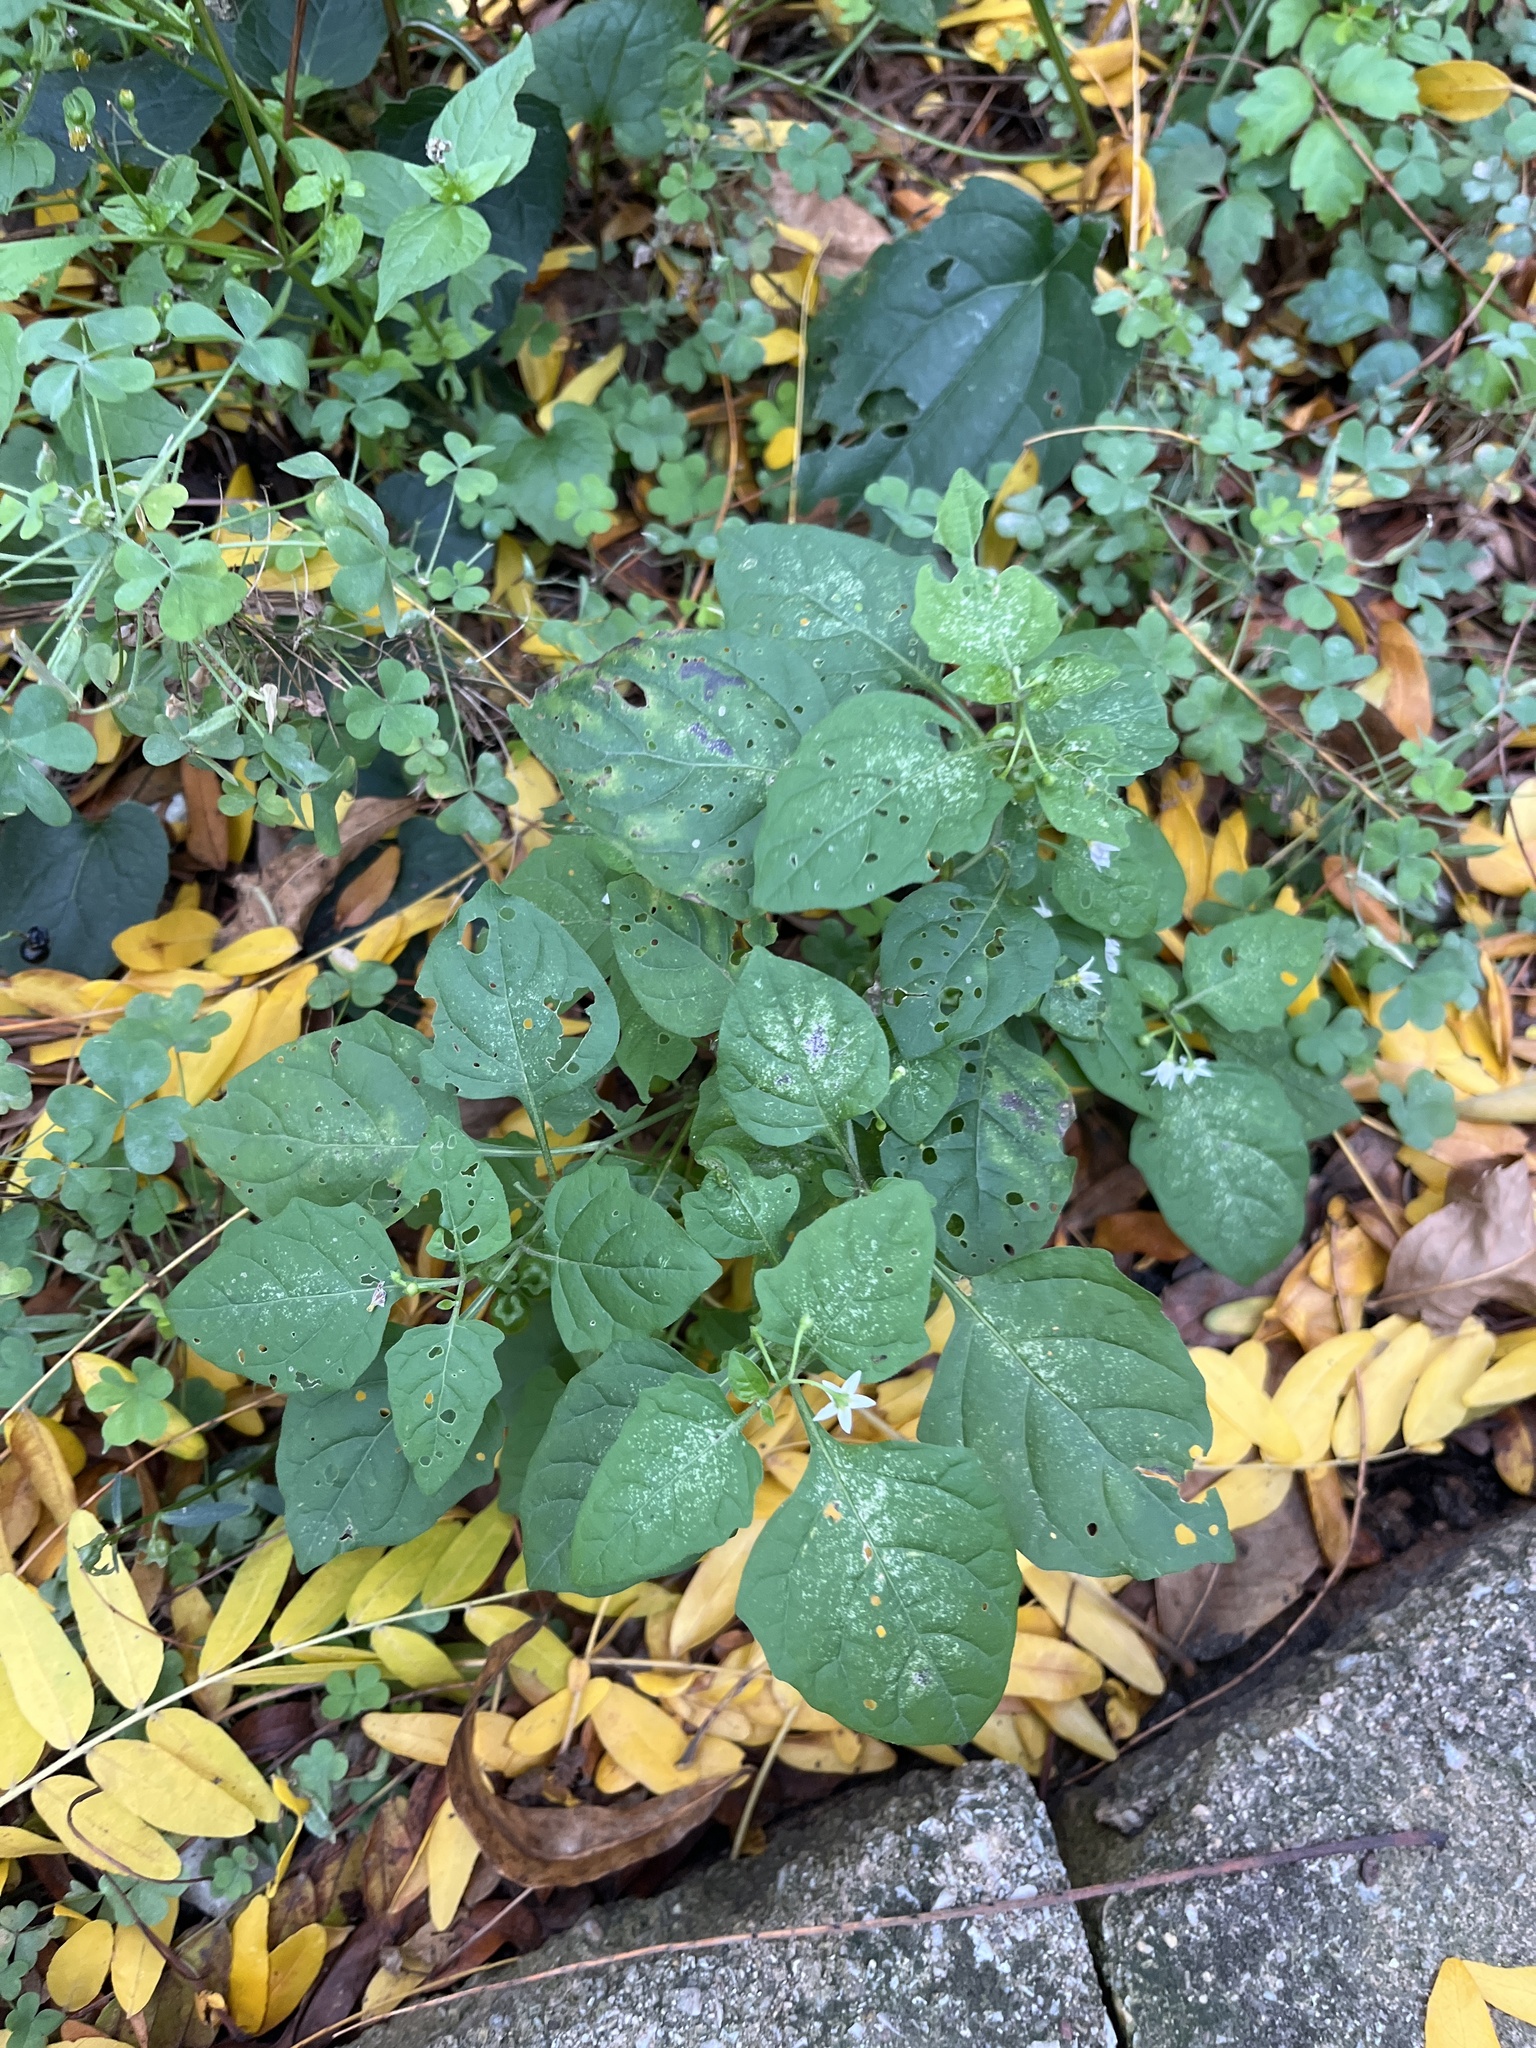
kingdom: Plantae
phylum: Tracheophyta
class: Magnoliopsida
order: Solanales
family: Solanaceae
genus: Solanum
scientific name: Solanum emulans
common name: Eastern black nightshade
